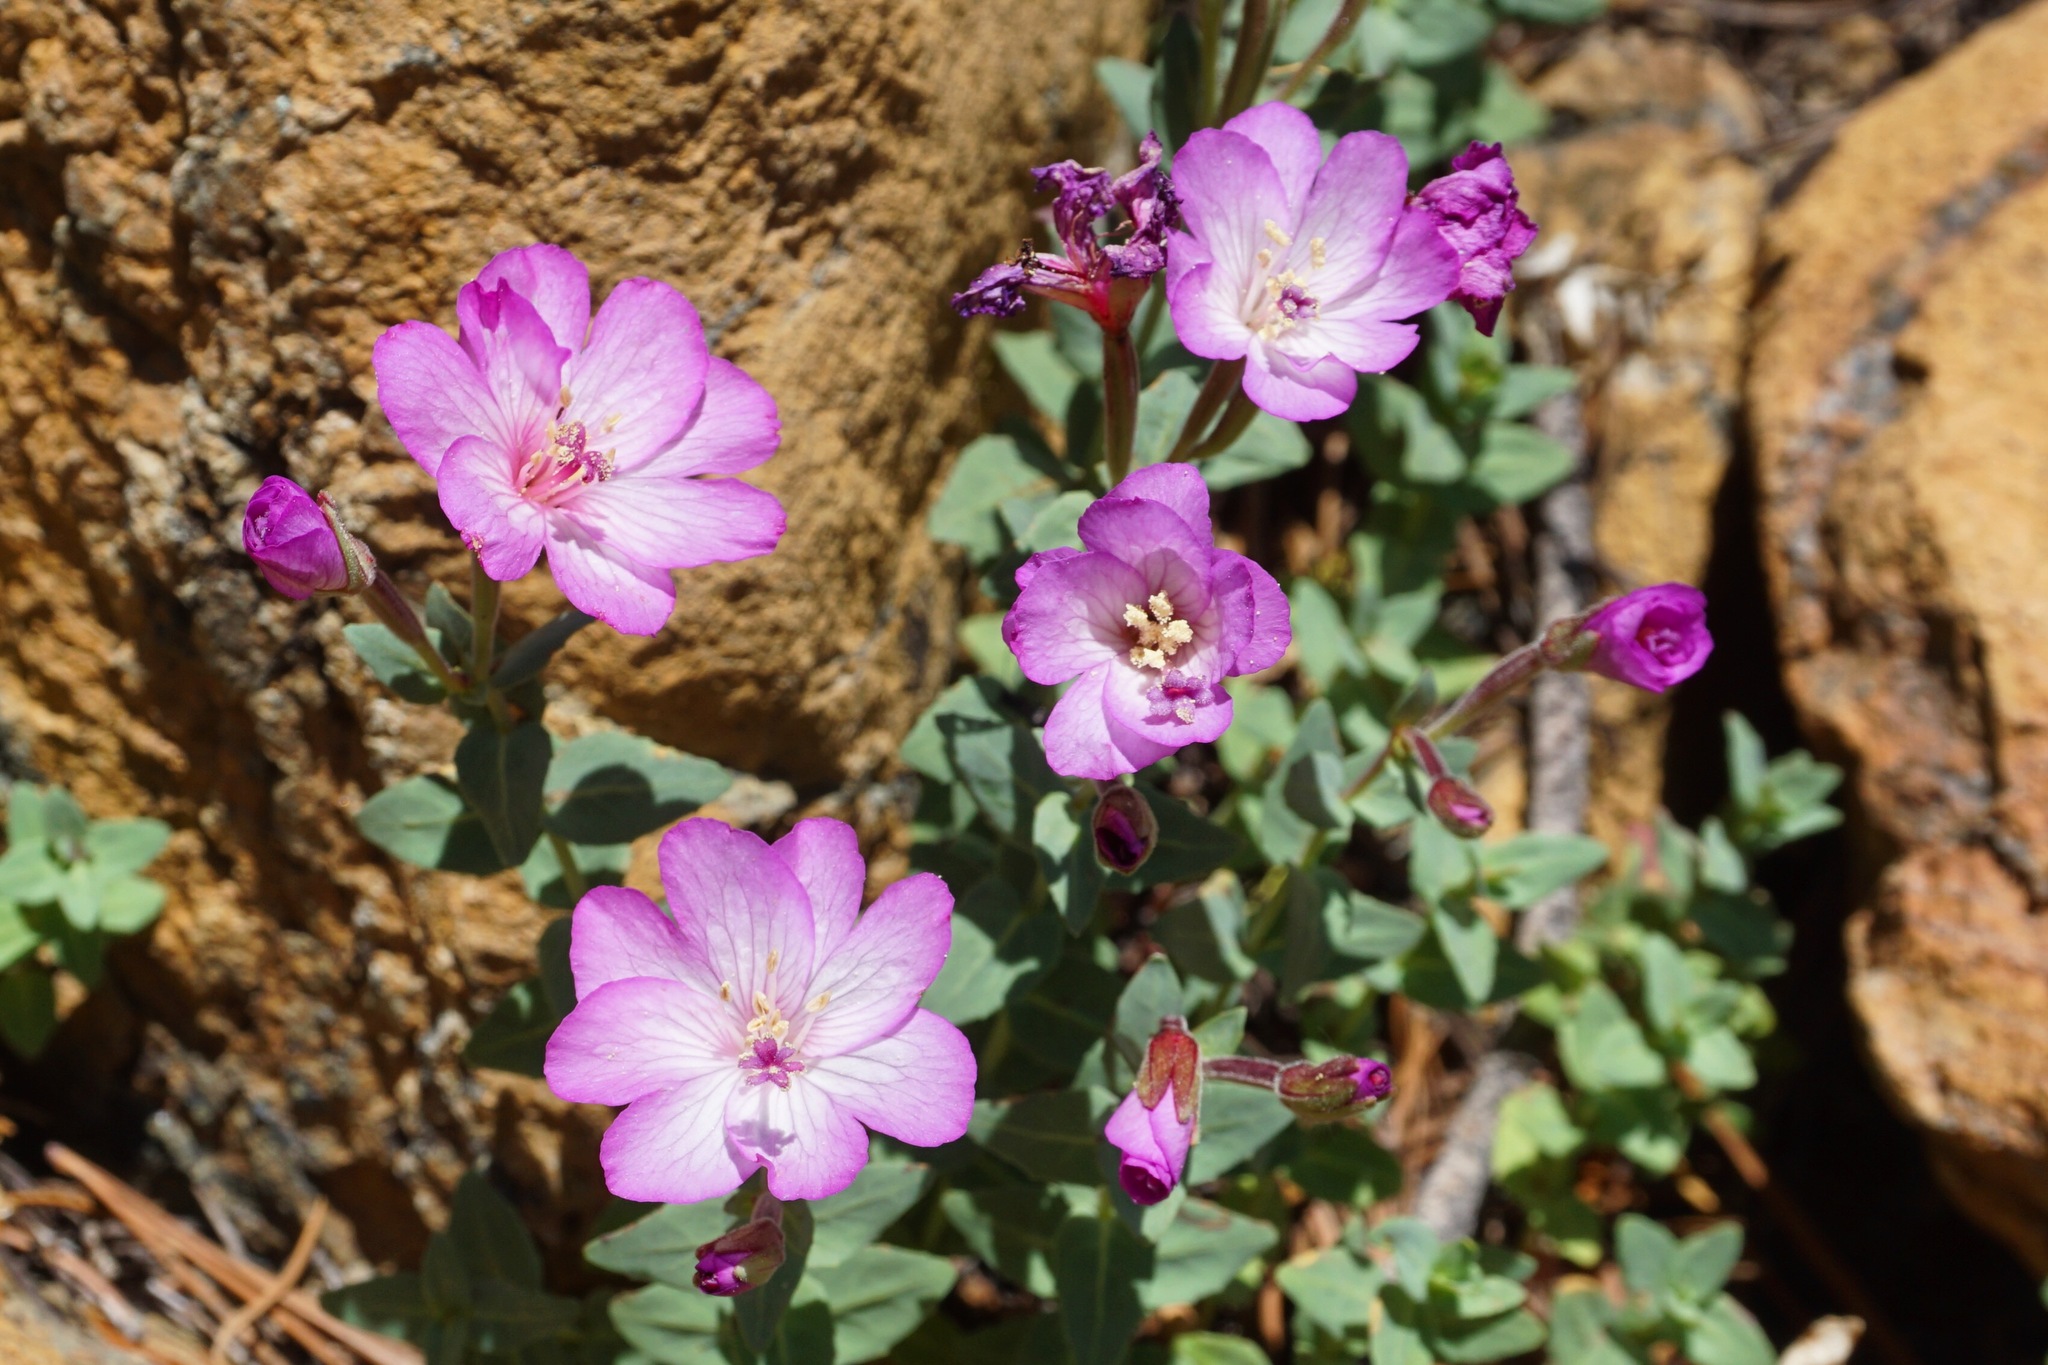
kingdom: Plantae
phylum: Tracheophyta
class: Magnoliopsida
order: Myrtales
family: Onagraceae
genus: Epilobium
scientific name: Epilobium siskiyouense
